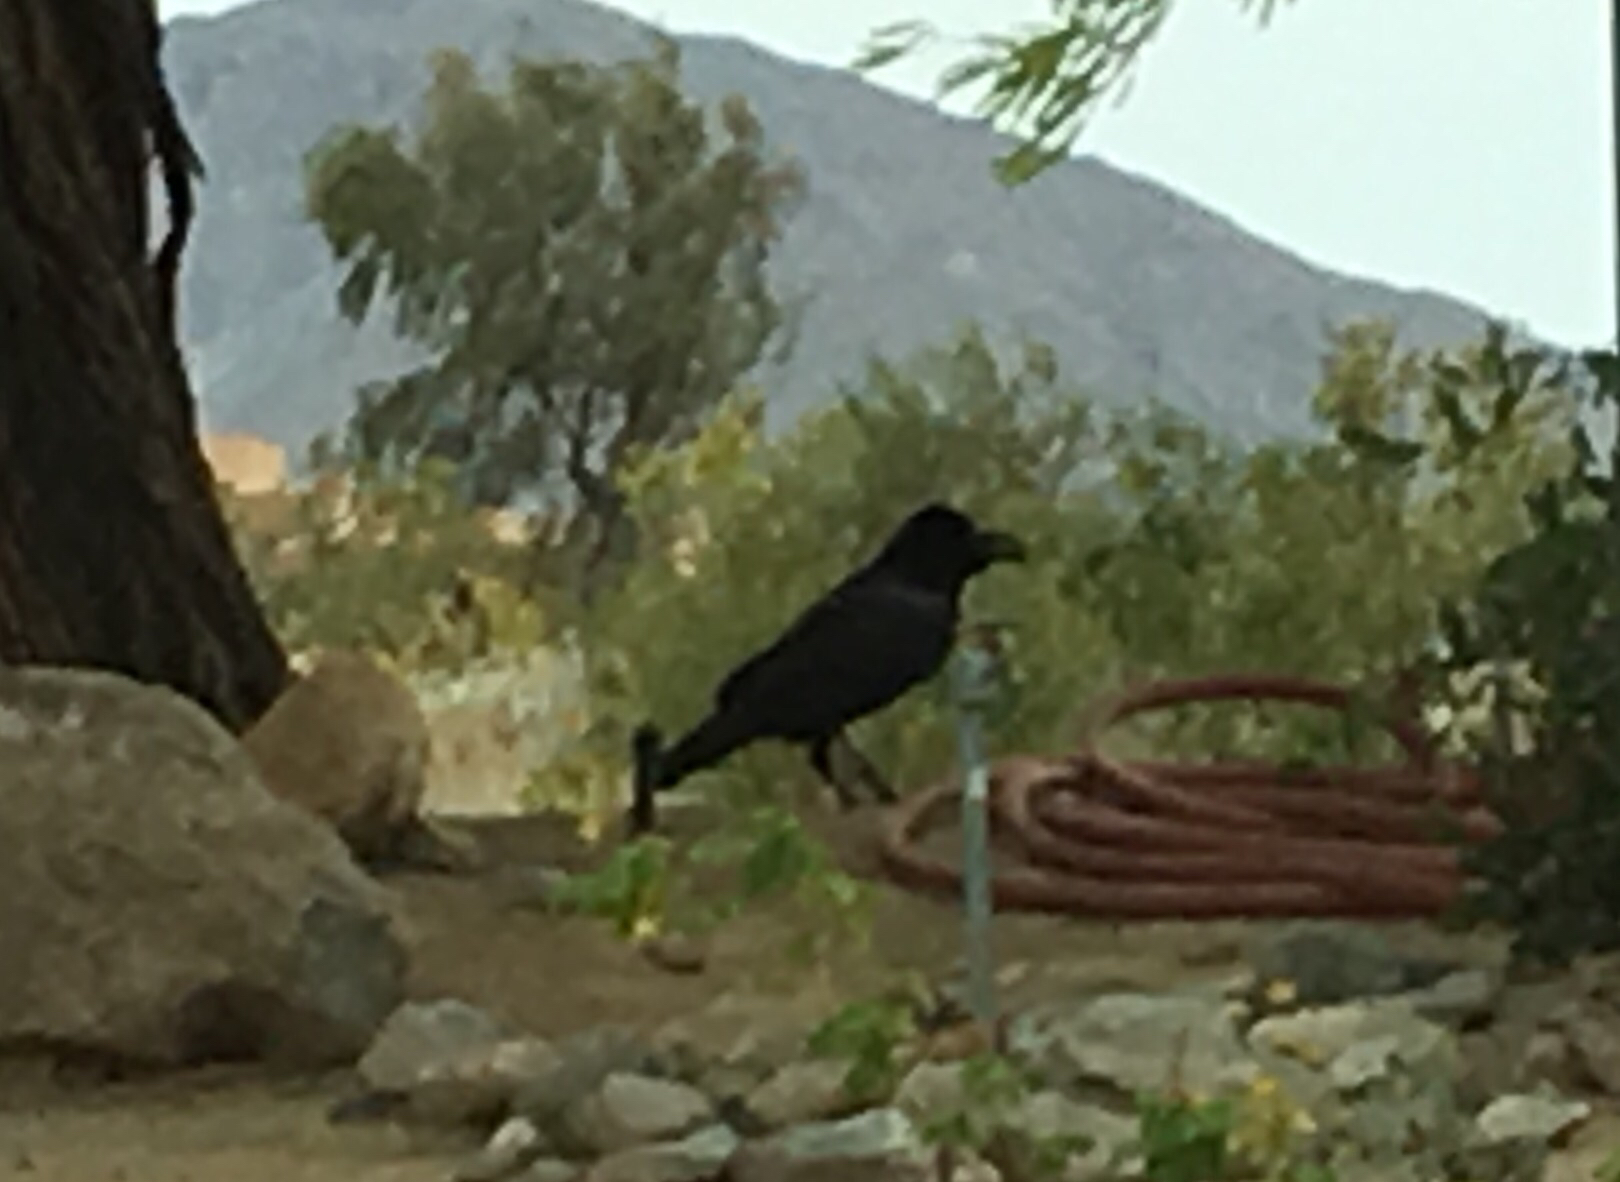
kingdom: Animalia
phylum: Chordata
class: Aves
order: Passeriformes
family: Corvidae
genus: Corvus
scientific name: Corvus corax
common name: Common raven
